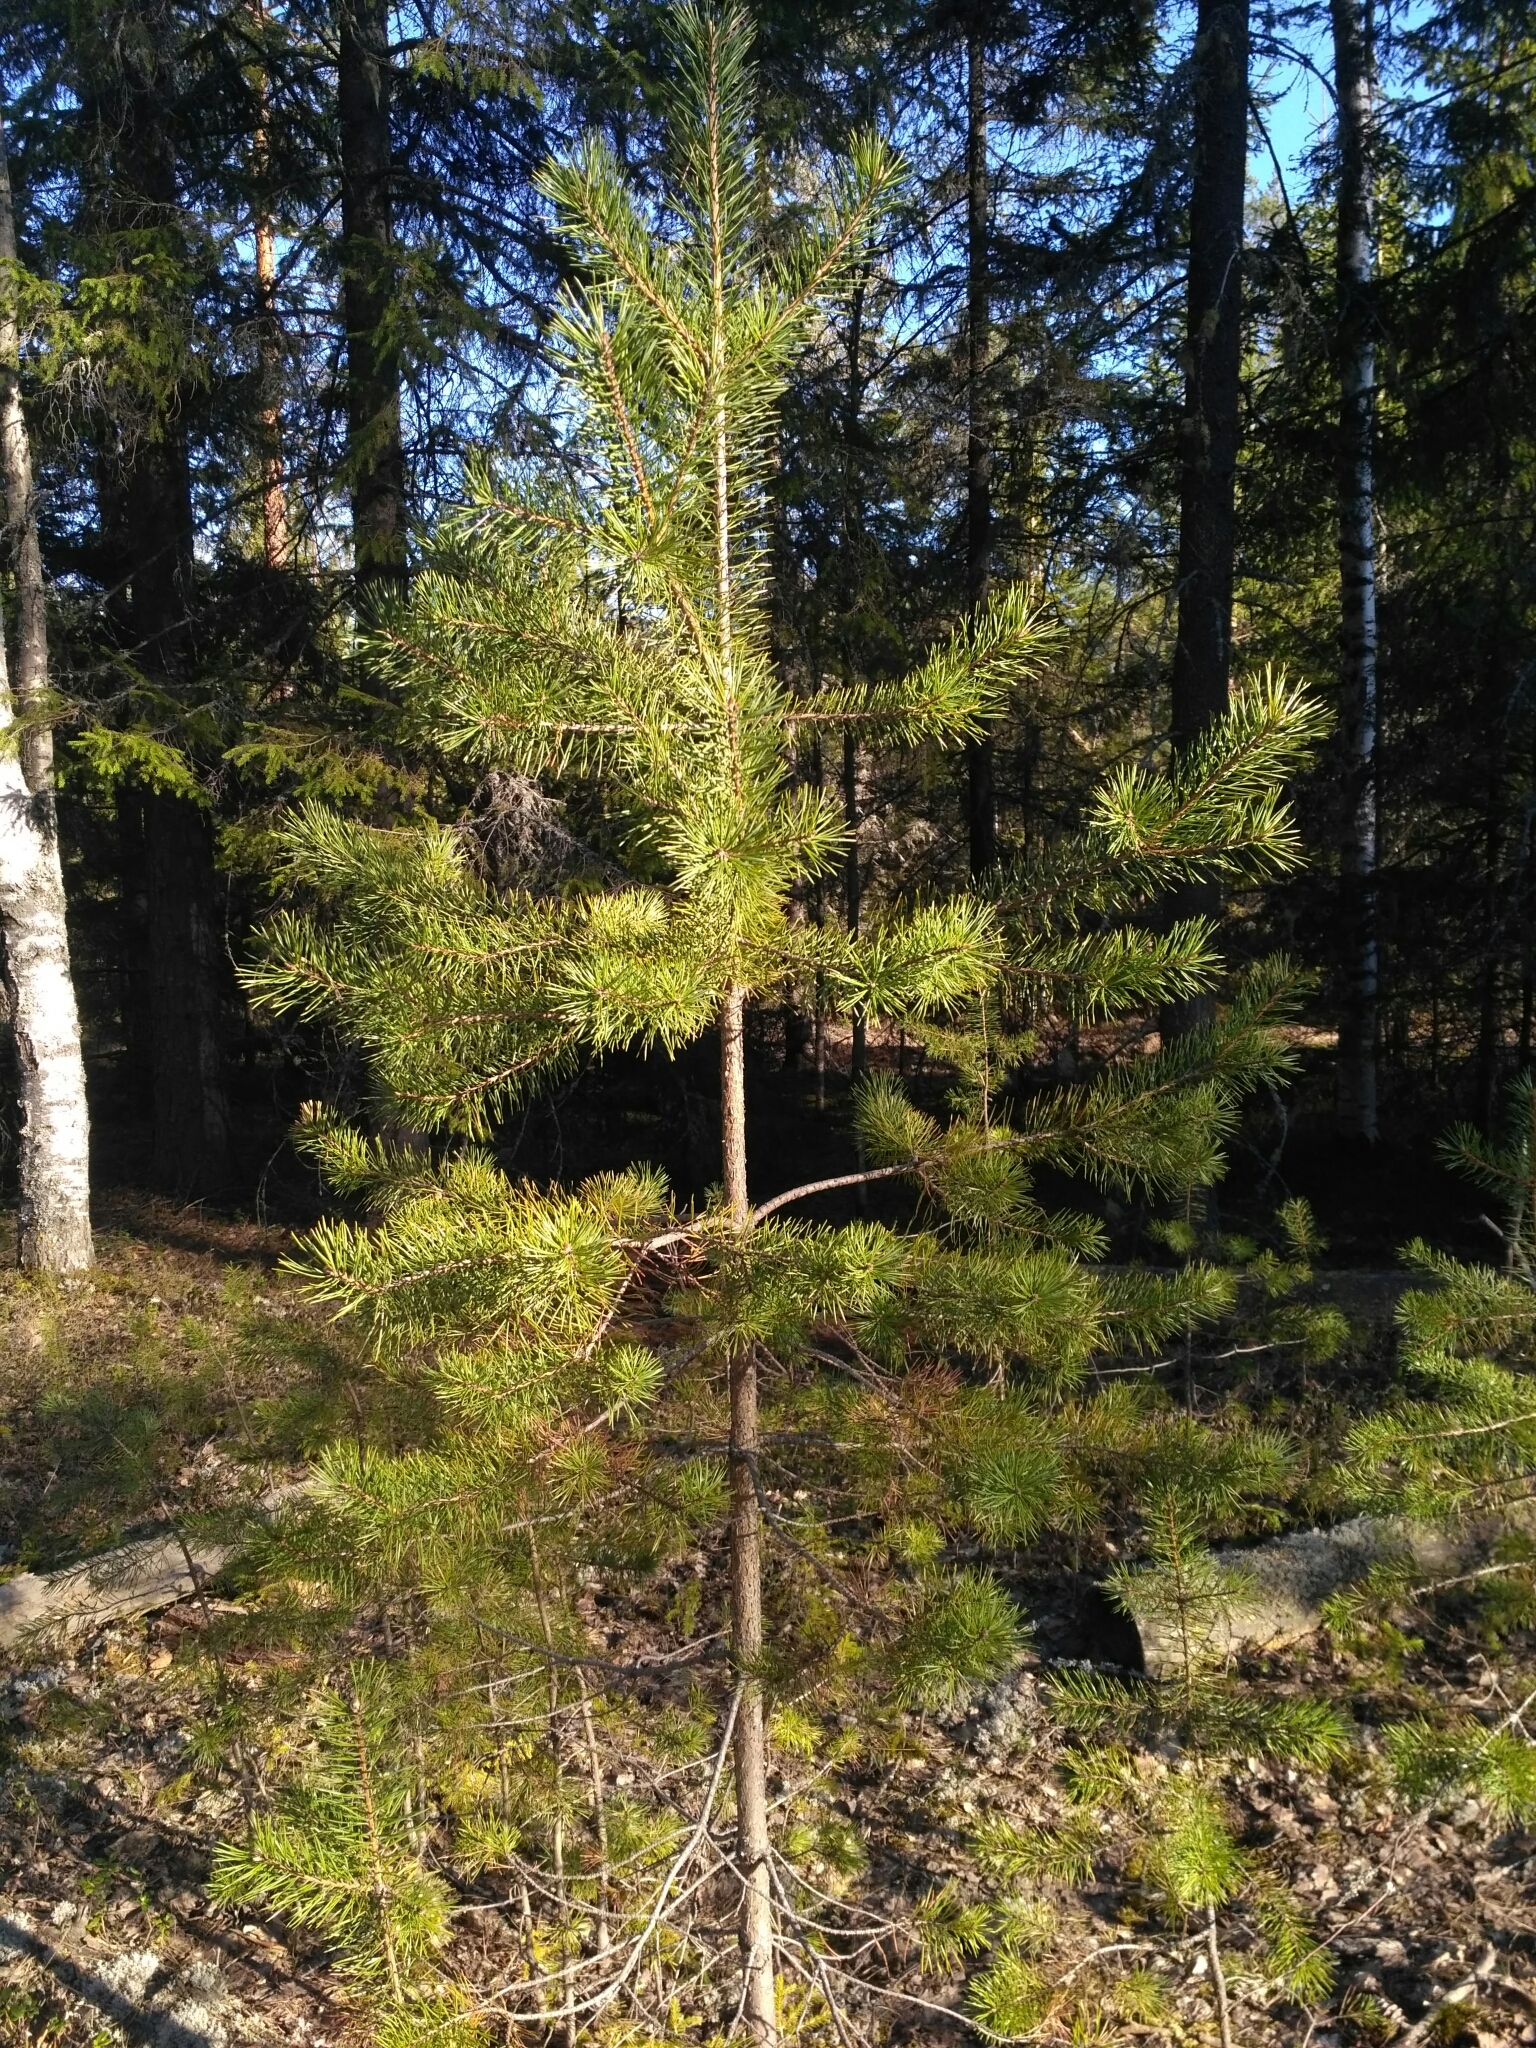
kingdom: Plantae
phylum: Tracheophyta
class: Pinopsida
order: Pinales
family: Pinaceae
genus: Pinus
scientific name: Pinus sylvestris
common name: Scots pine
